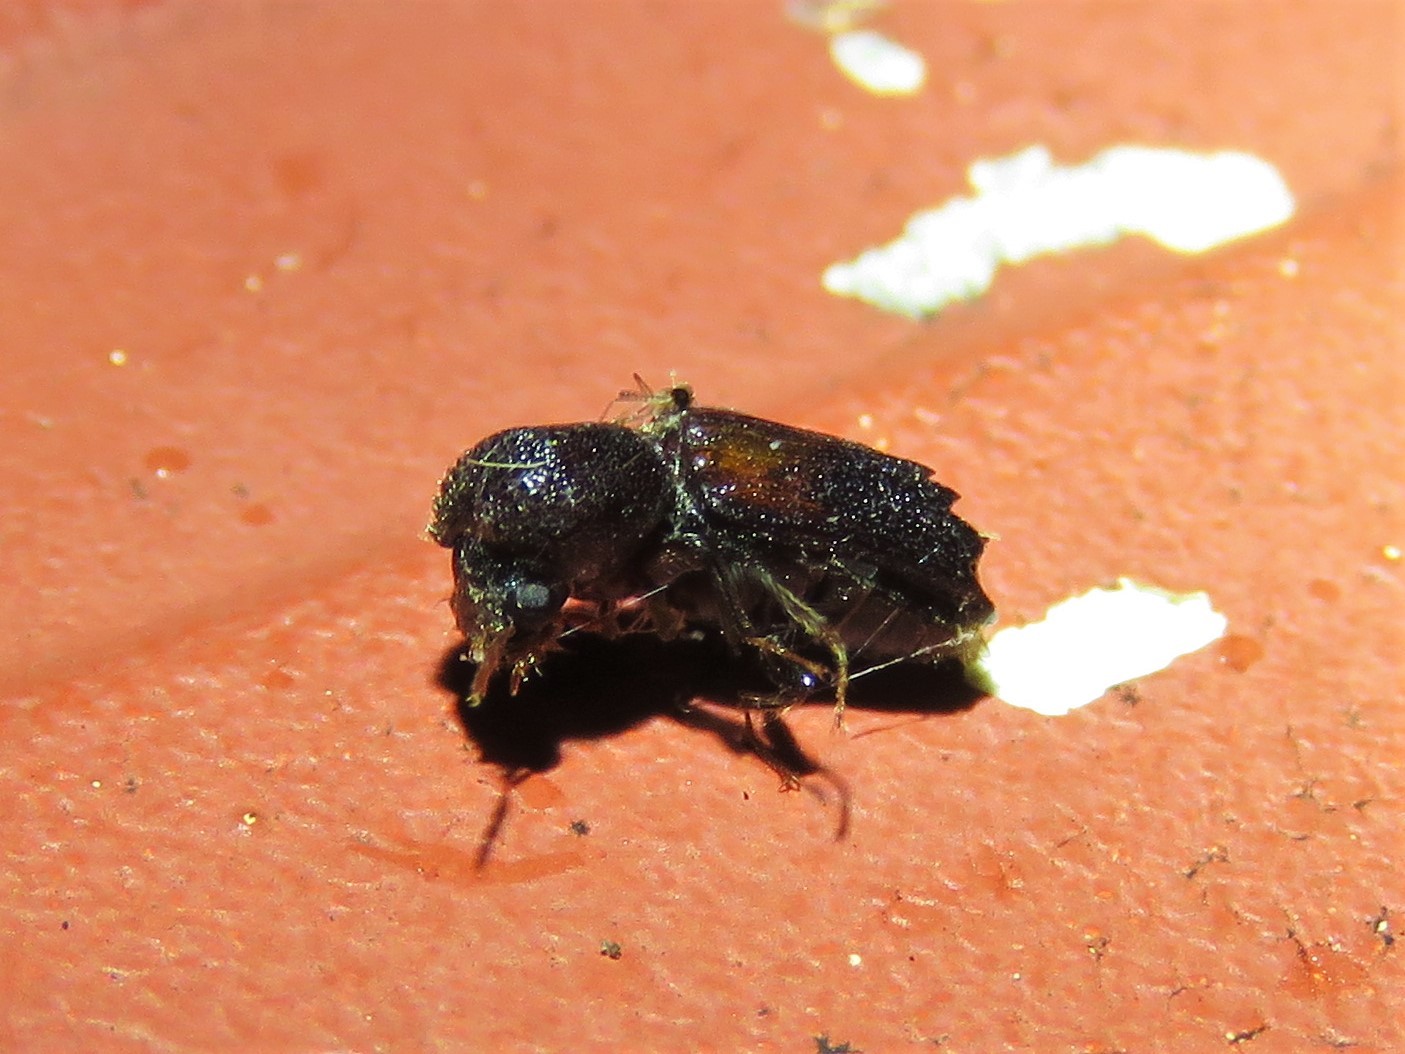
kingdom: Animalia
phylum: Arthropoda
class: Insecta
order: Coleoptera
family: Bostrichidae
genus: Xylobiops
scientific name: Xylobiops basilaris
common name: Red-shouldered bostrichid
